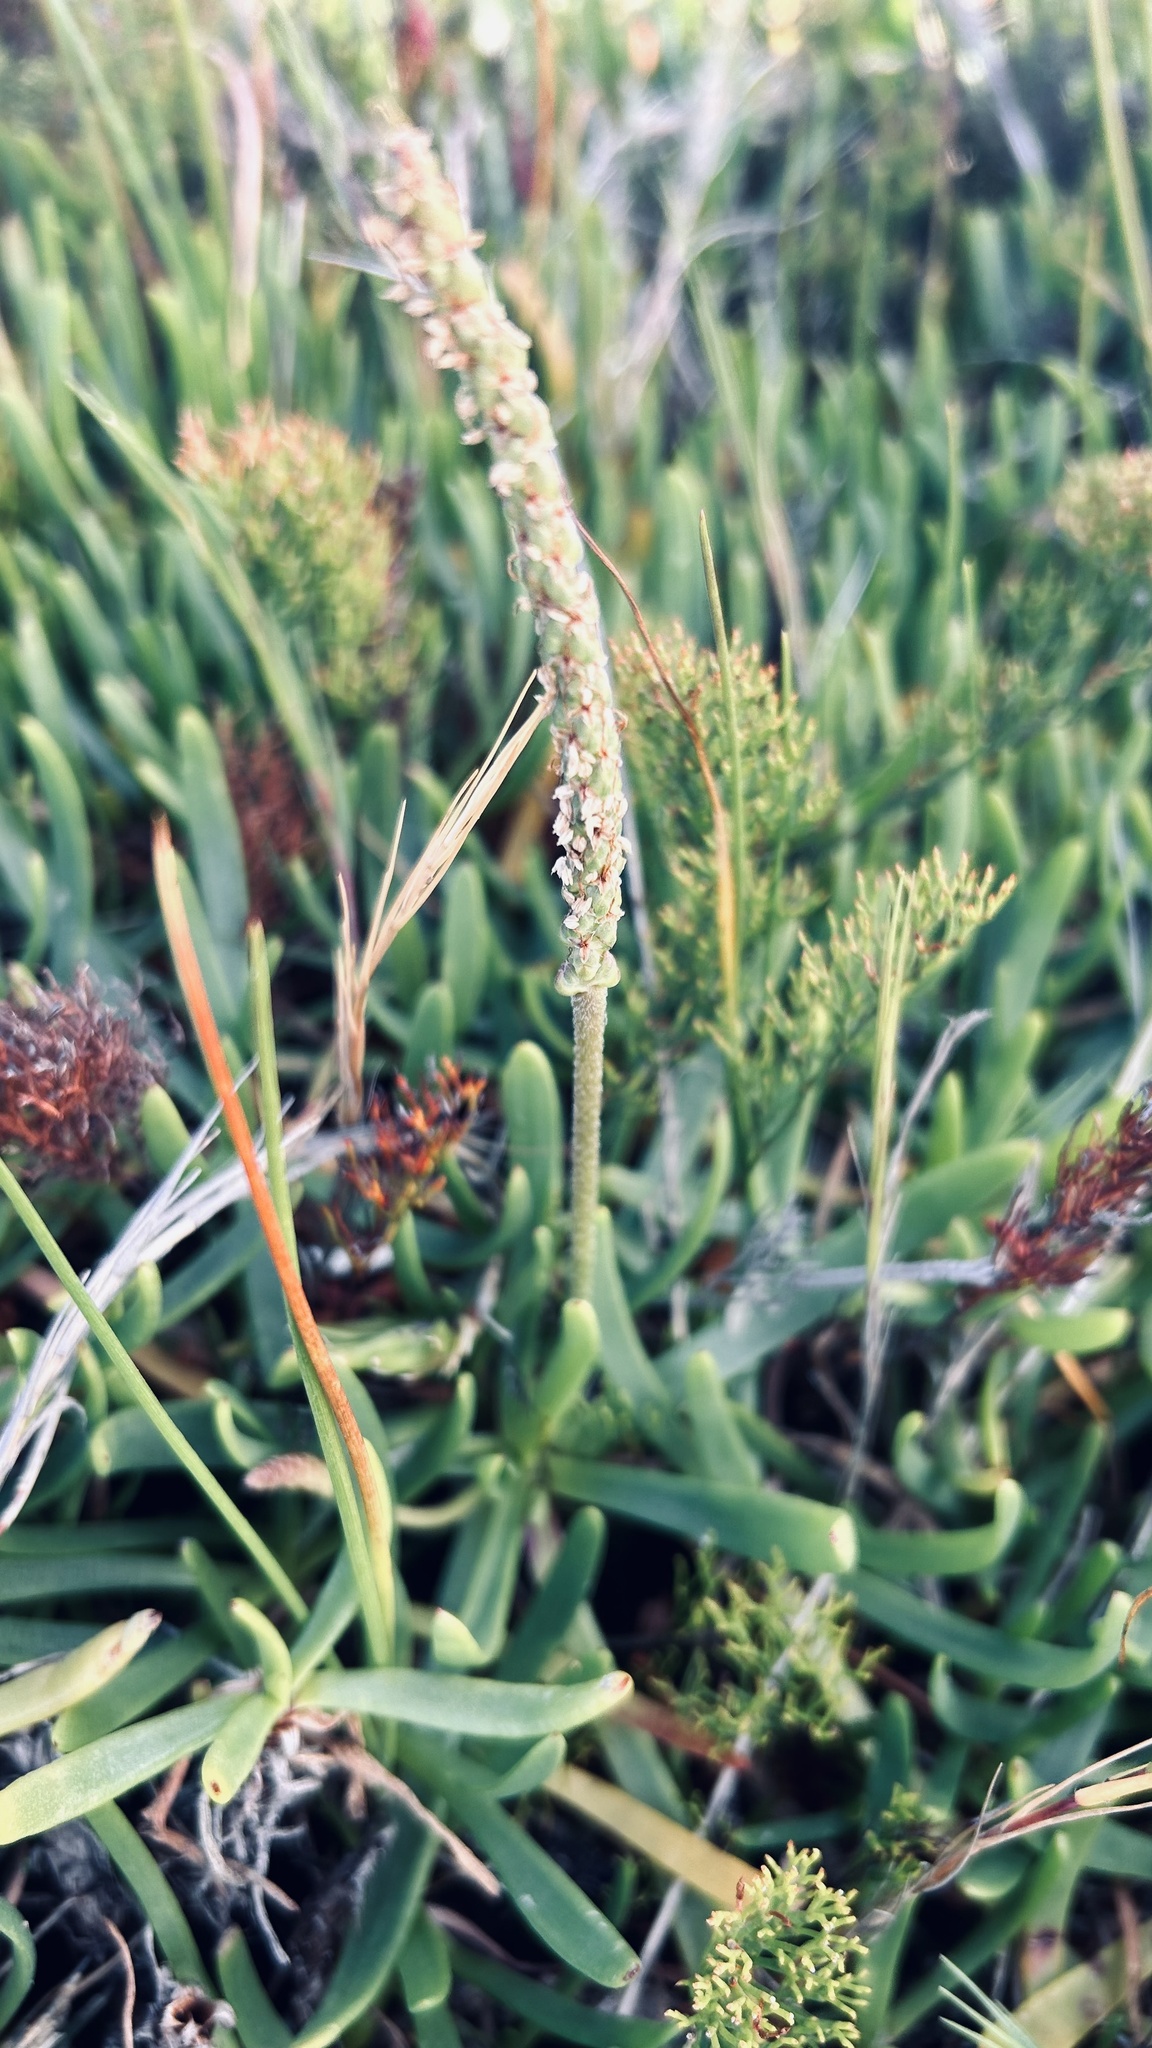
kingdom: Plantae
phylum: Tracheophyta
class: Magnoliopsida
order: Lamiales
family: Plantaginaceae
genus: Plantago
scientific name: Plantago carnosa
